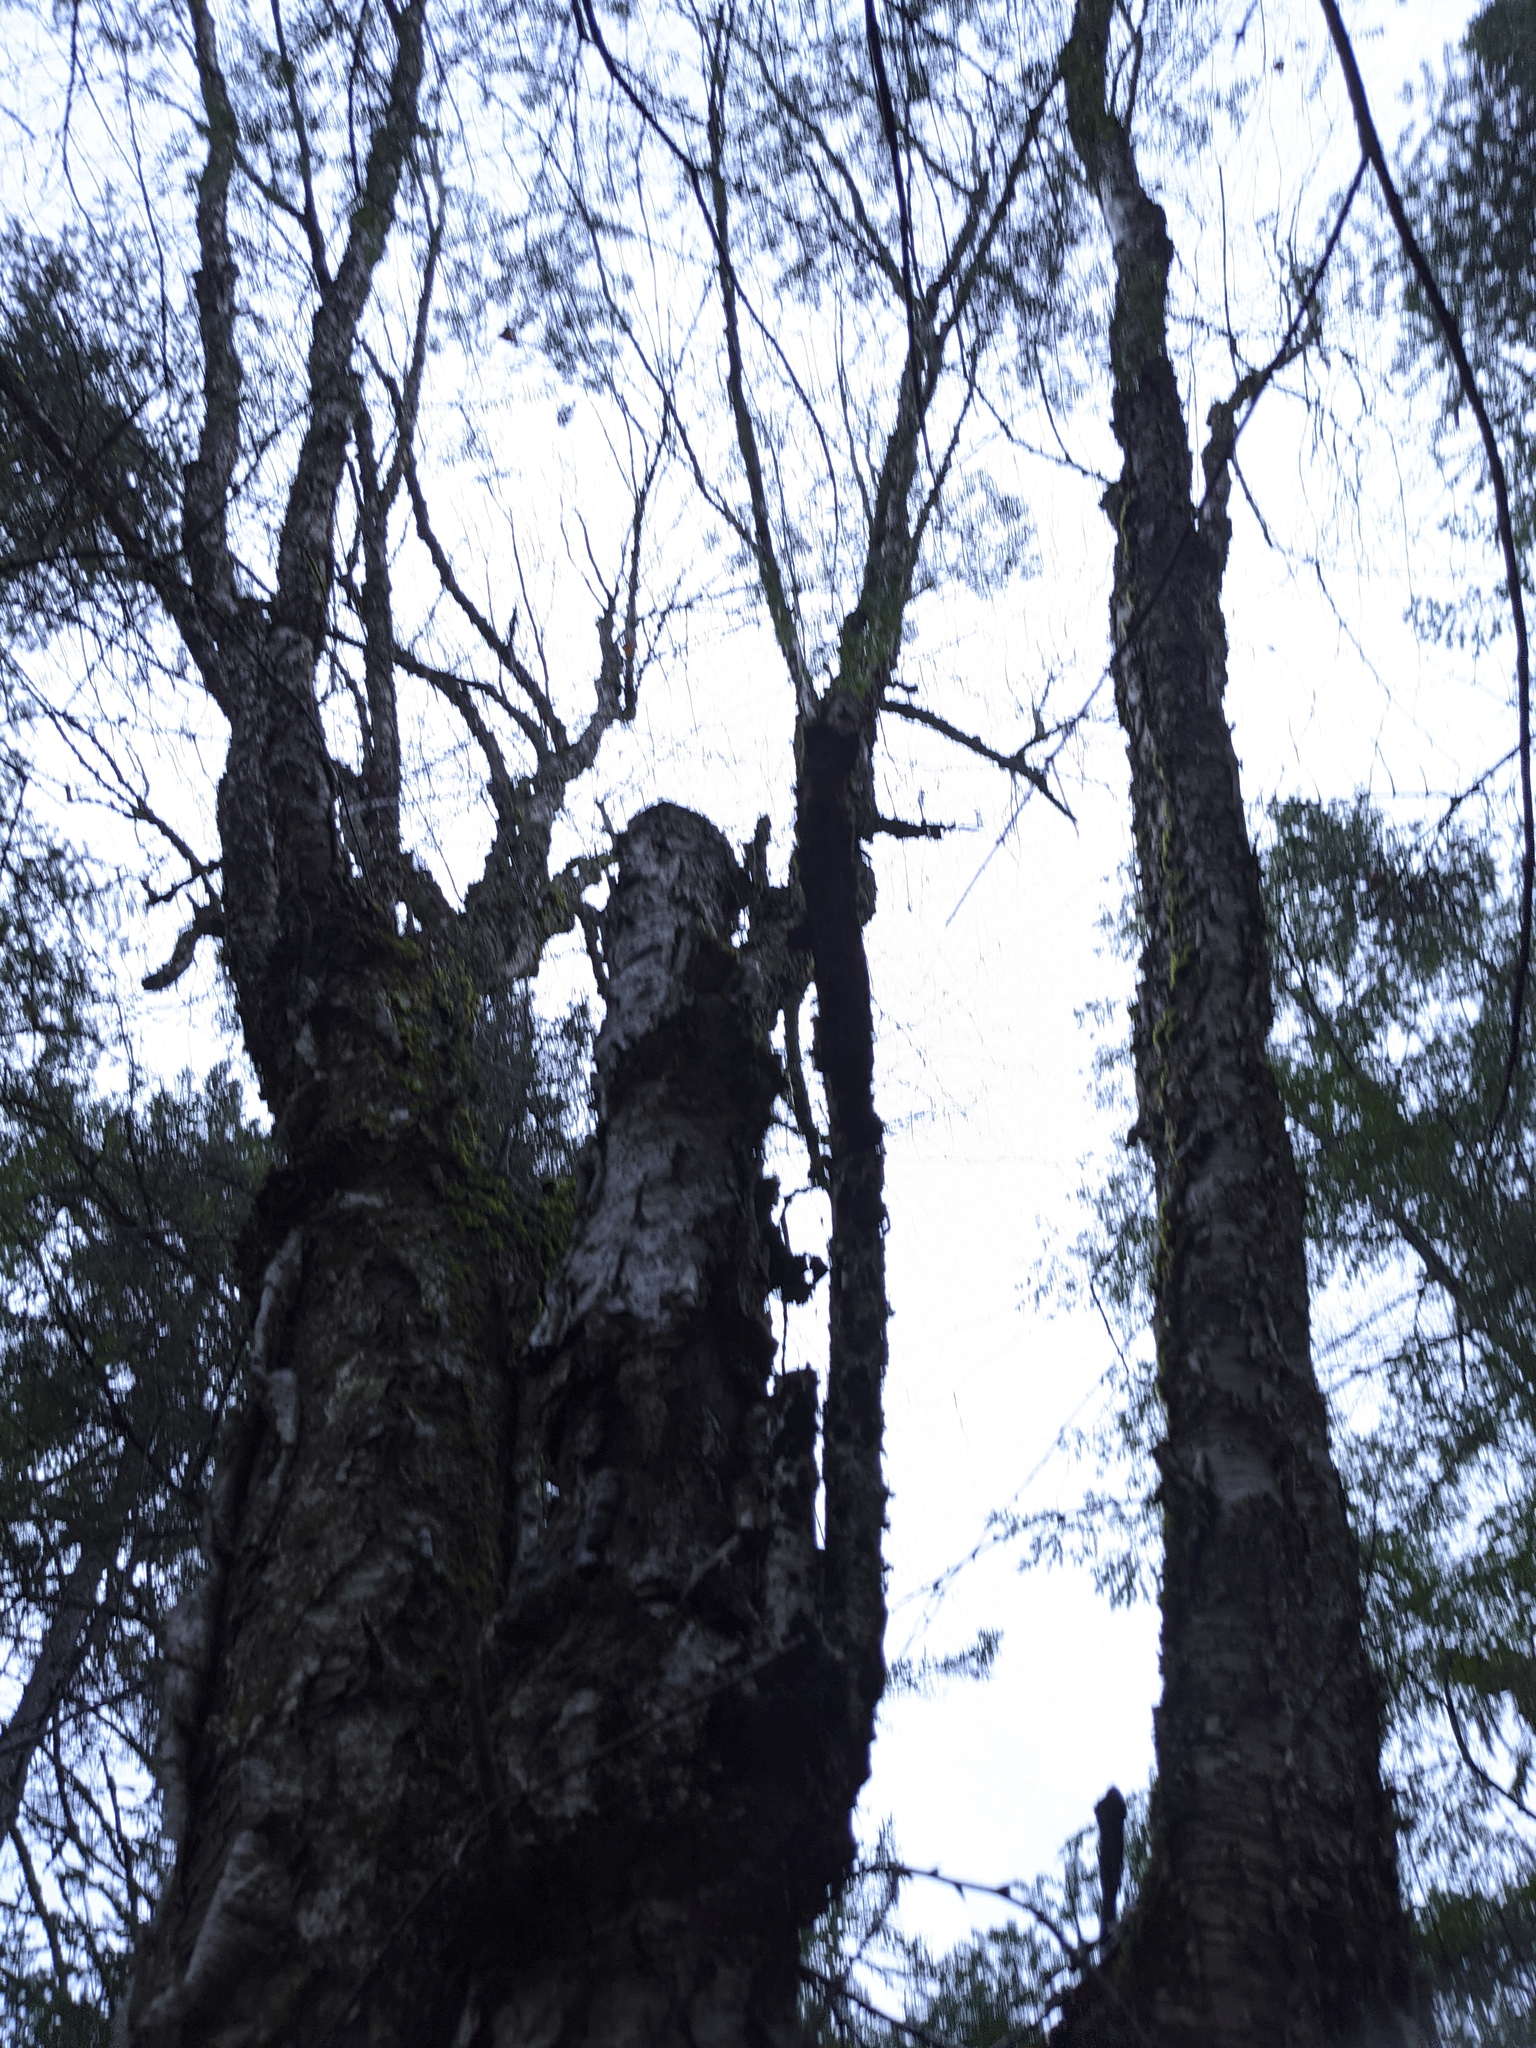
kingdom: Plantae
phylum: Tracheophyta
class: Magnoliopsida
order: Fagales
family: Betulaceae
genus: Betula
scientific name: Betula alleghaniensis
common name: Yellow birch
